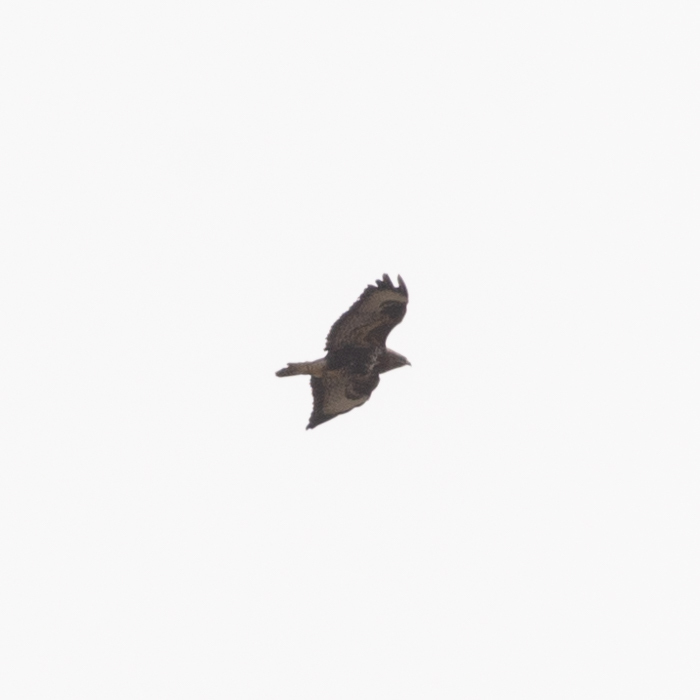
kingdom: Animalia
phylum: Chordata
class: Aves
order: Accipitriformes
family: Accipitridae
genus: Buteo
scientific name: Buteo buteo
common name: Common buzzard
